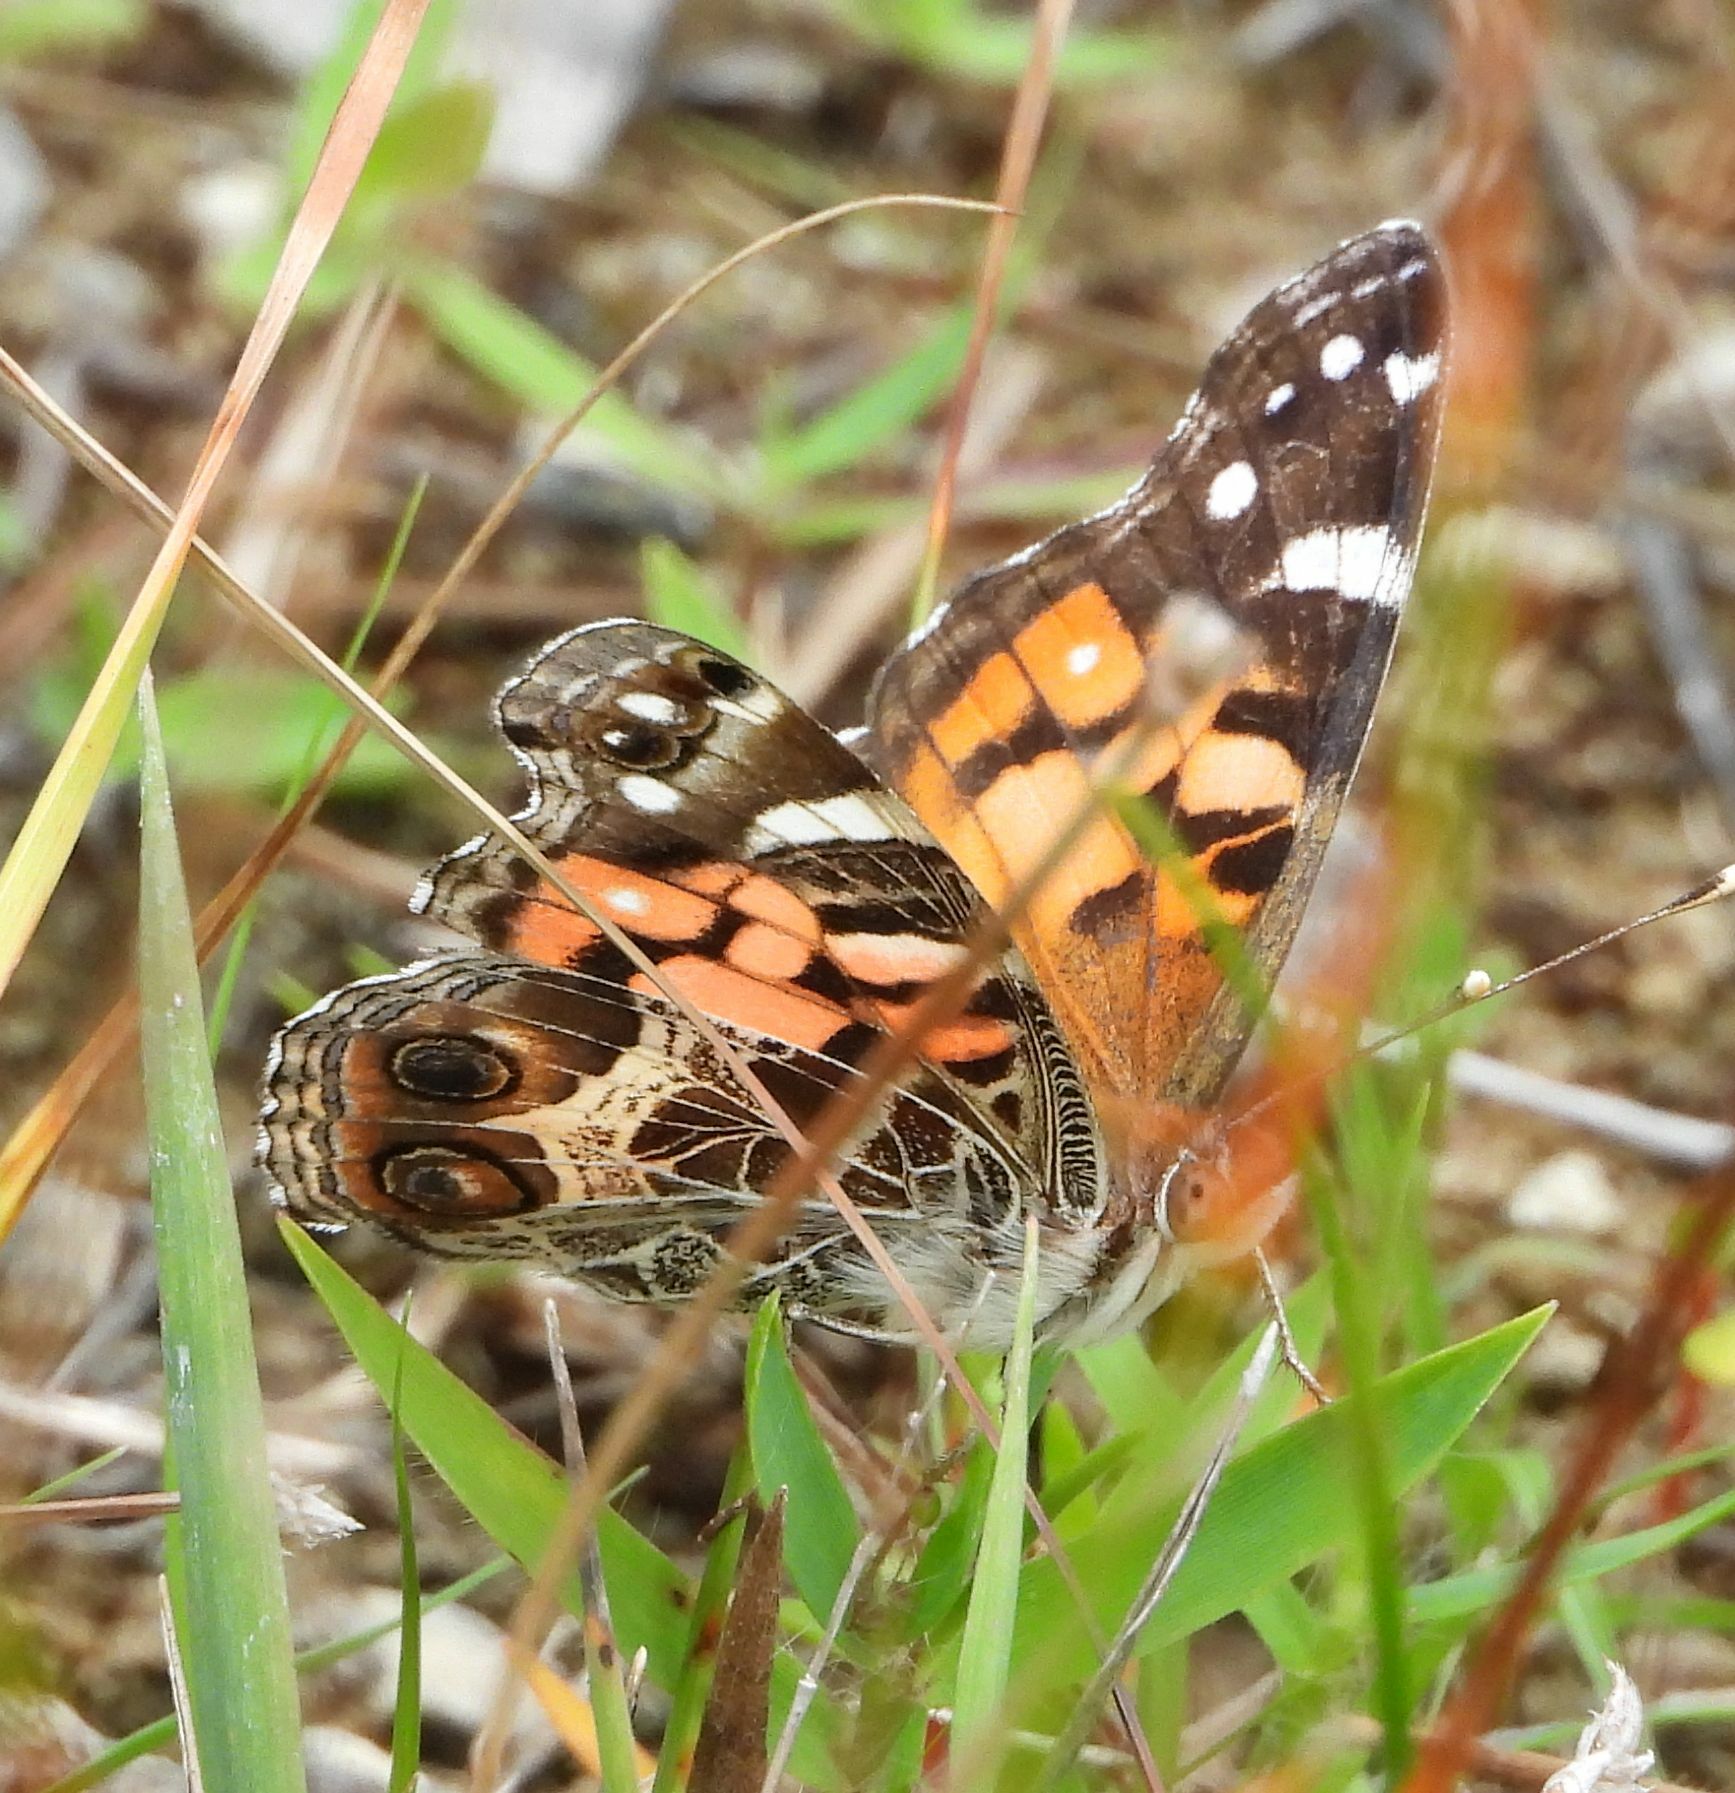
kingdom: Animalia
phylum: Arthropoda
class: Insecta
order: Lepidoptera
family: Nymphalidae
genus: Vanessa
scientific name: Vanessa virginiensis
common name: American lady
